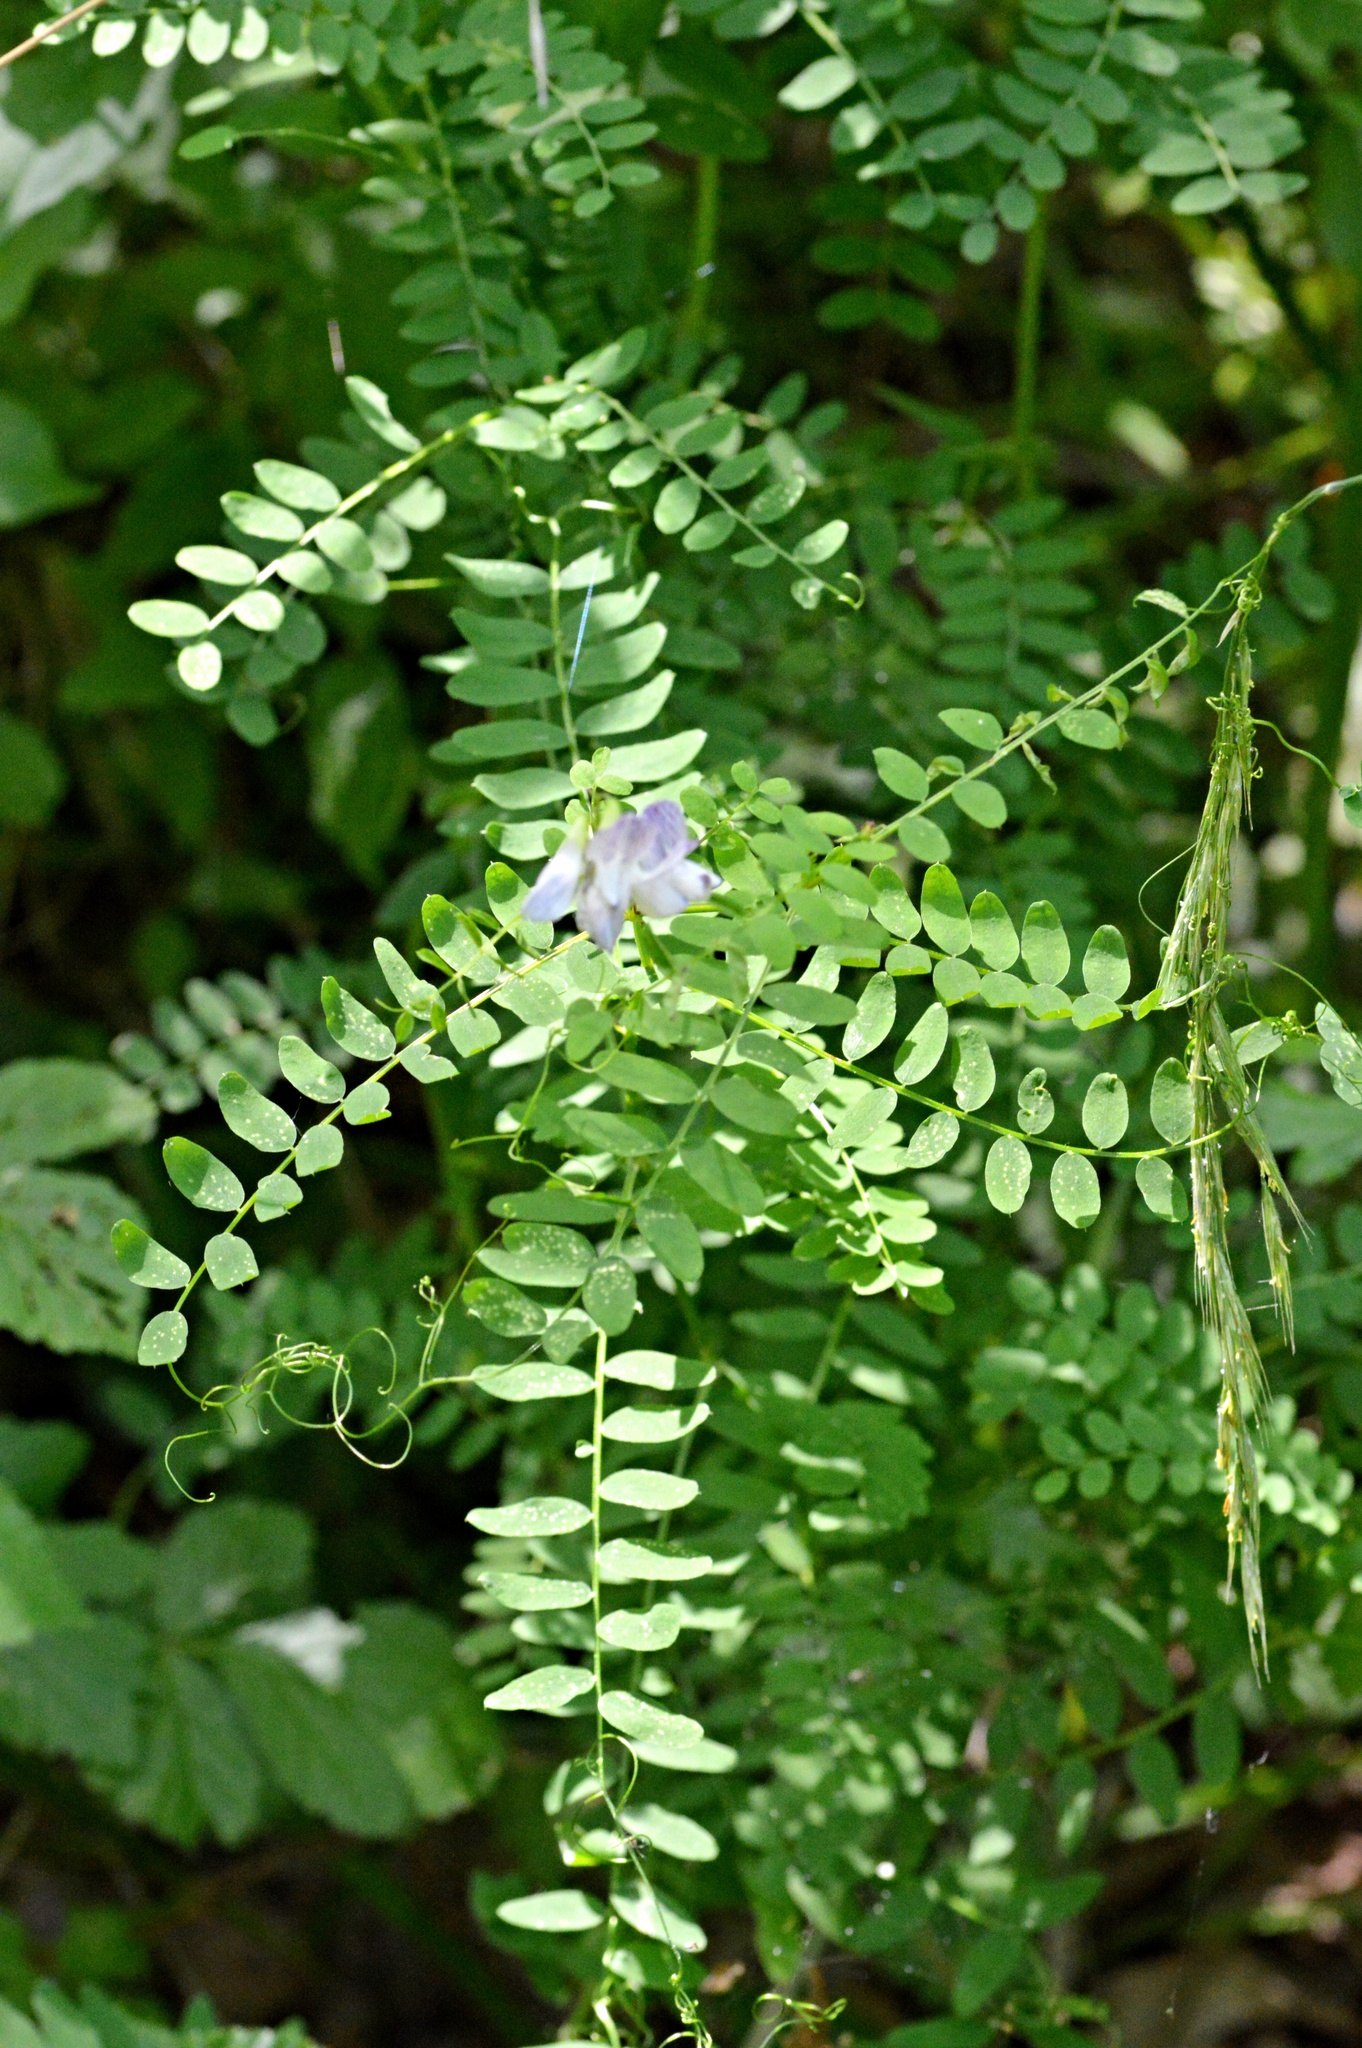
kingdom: Plantae
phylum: Tracheophyta
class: Magnoliopsida
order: Fabales
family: Fabaceae
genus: Vicia
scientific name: Vicia sylvatica
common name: Wood vetch
